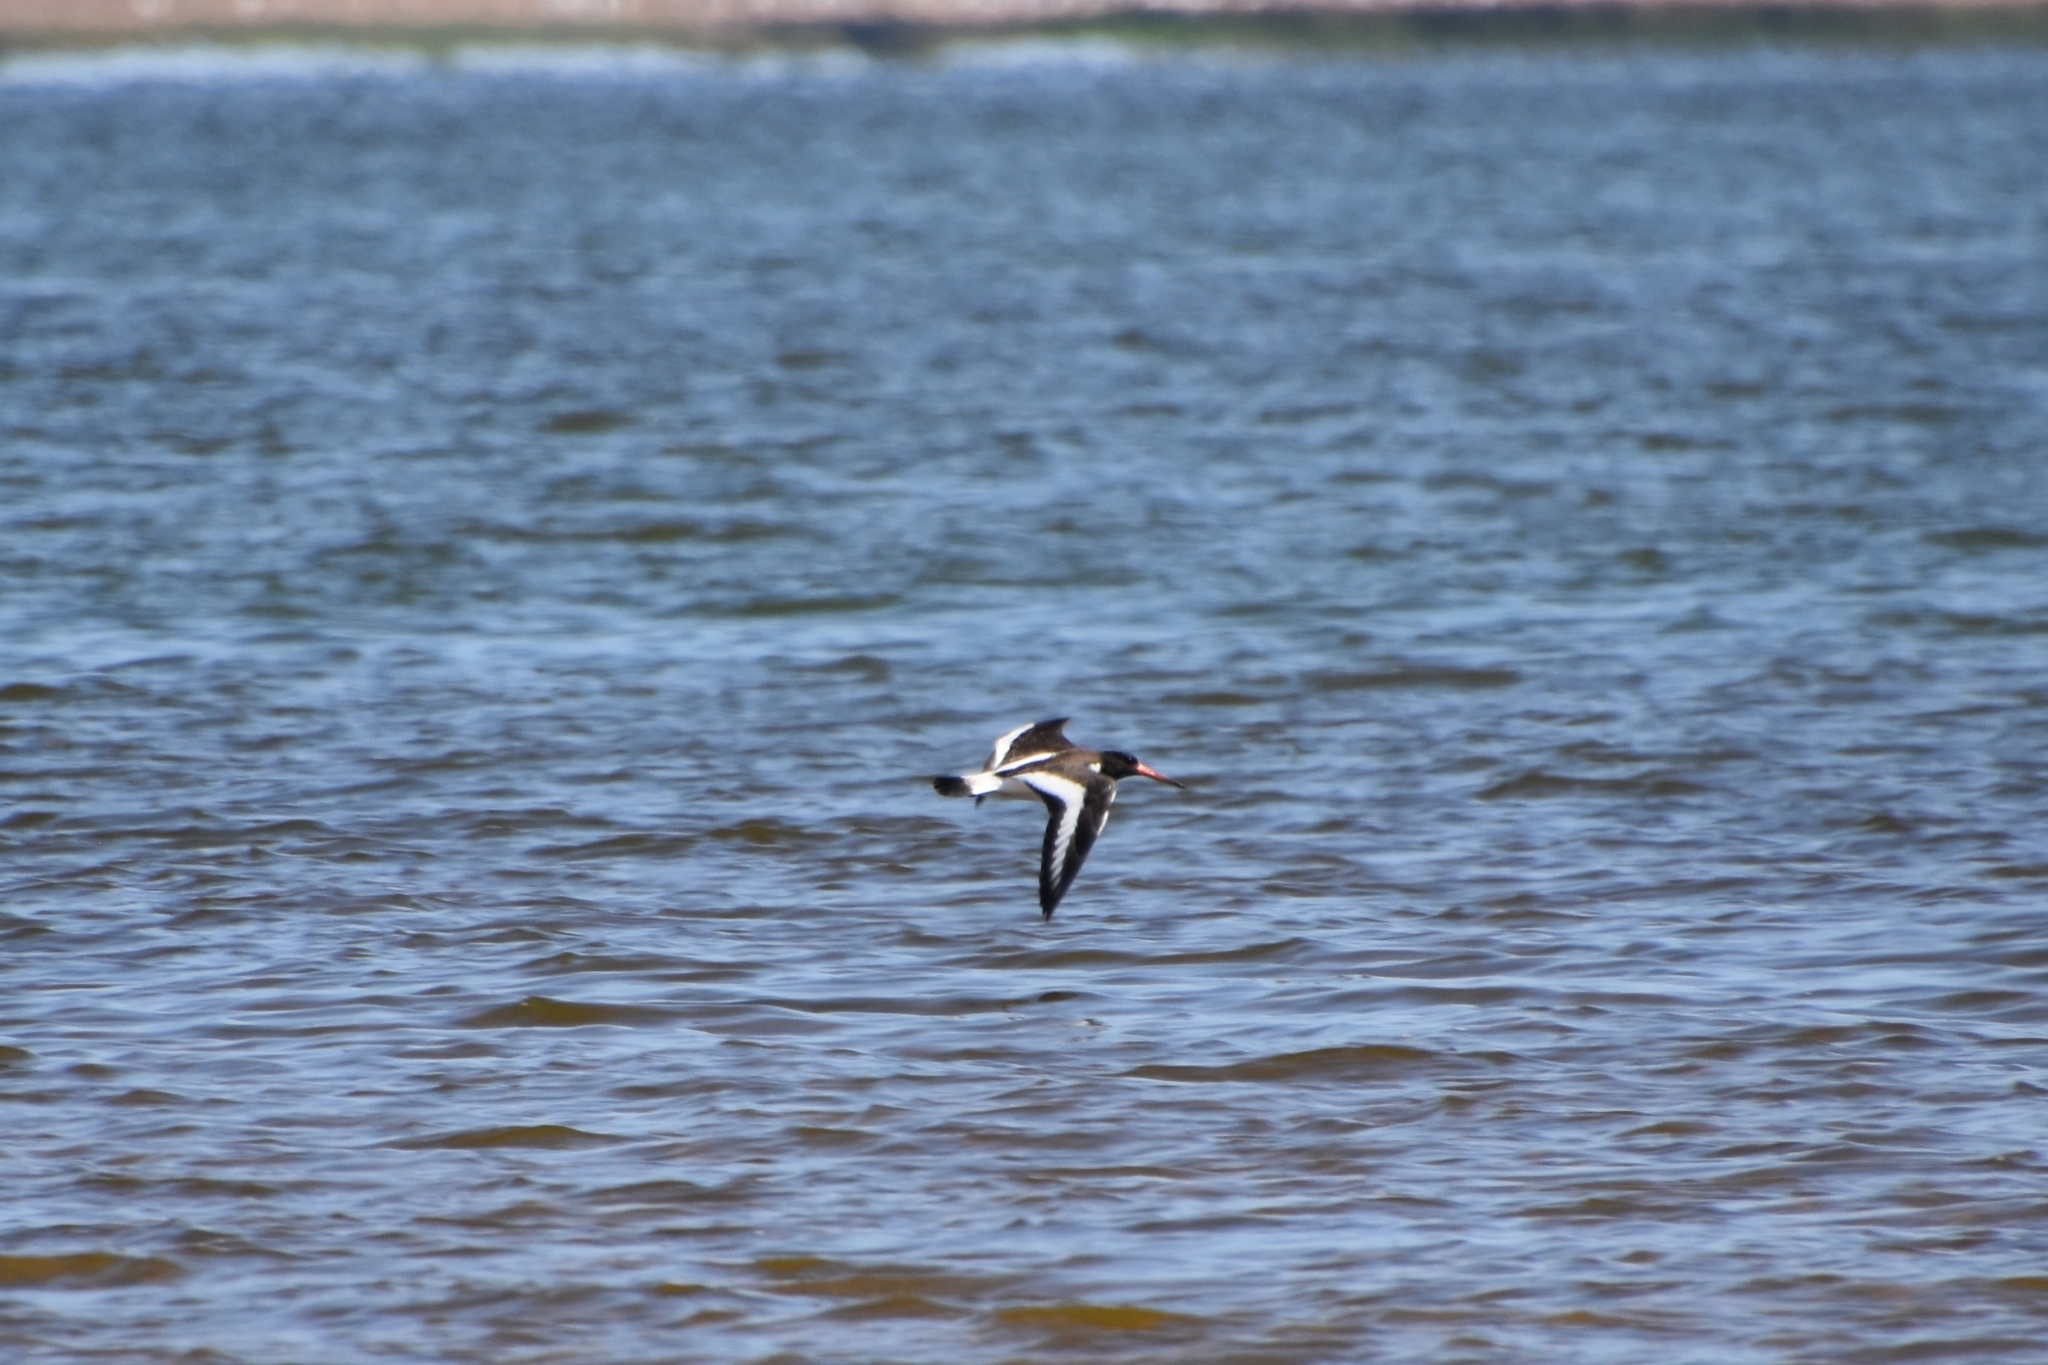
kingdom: Animalia
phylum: Chordata
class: Aves
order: Charadriiformes
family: Haematopodidae
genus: Haematopus
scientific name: Haematopus ostralegus
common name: Eurasian oystercatcher
